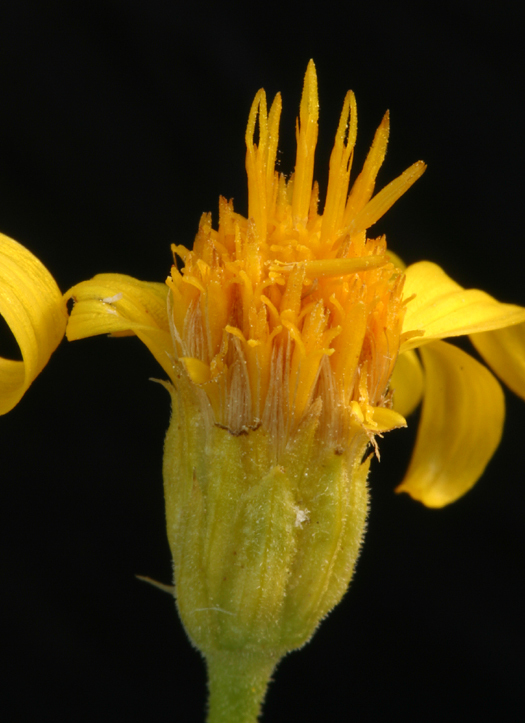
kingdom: Plantae
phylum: Tracheophyta
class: Magnoliopsida
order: Asterales
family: Asteraceae
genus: Stenotus
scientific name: Stenotus acaulis
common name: Stemless goldenweed
